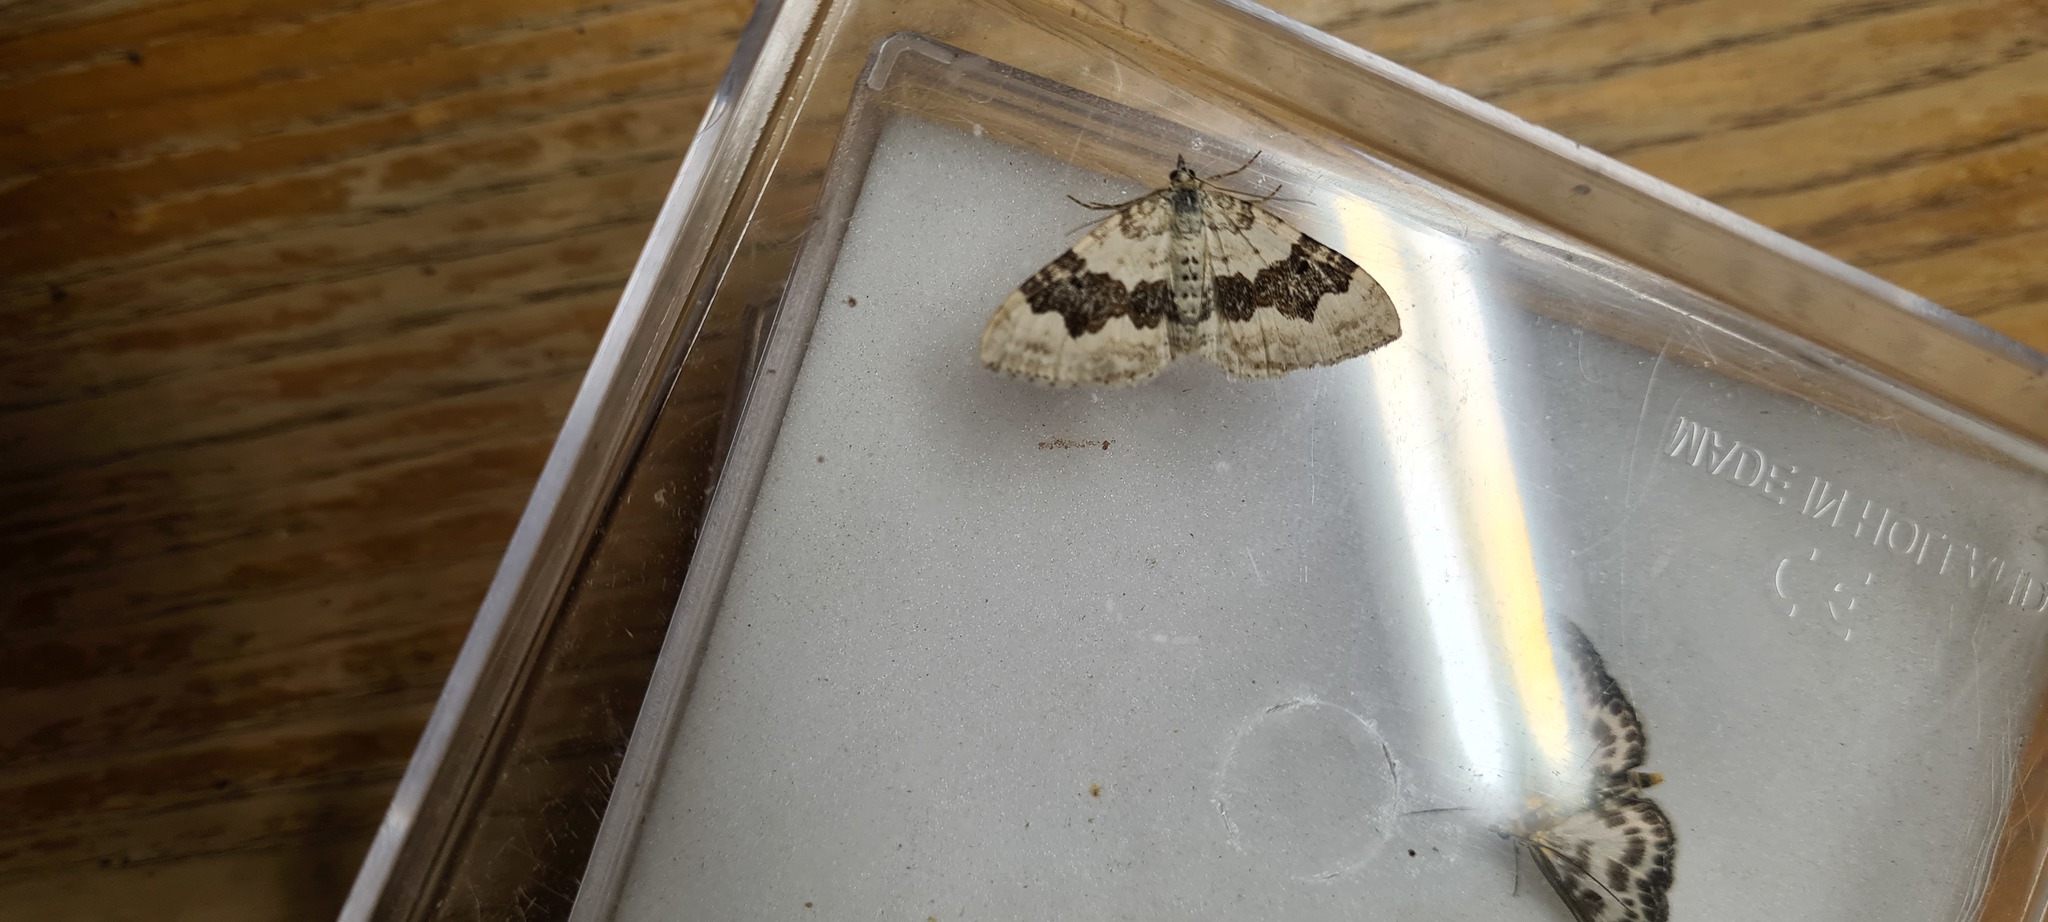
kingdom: Animalia
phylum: Arthropoda
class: Insecta
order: Lepidoptera
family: Geometridae
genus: Xanthorhoe
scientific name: Xanthorhoe montanata
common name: Silver-ground carpet
